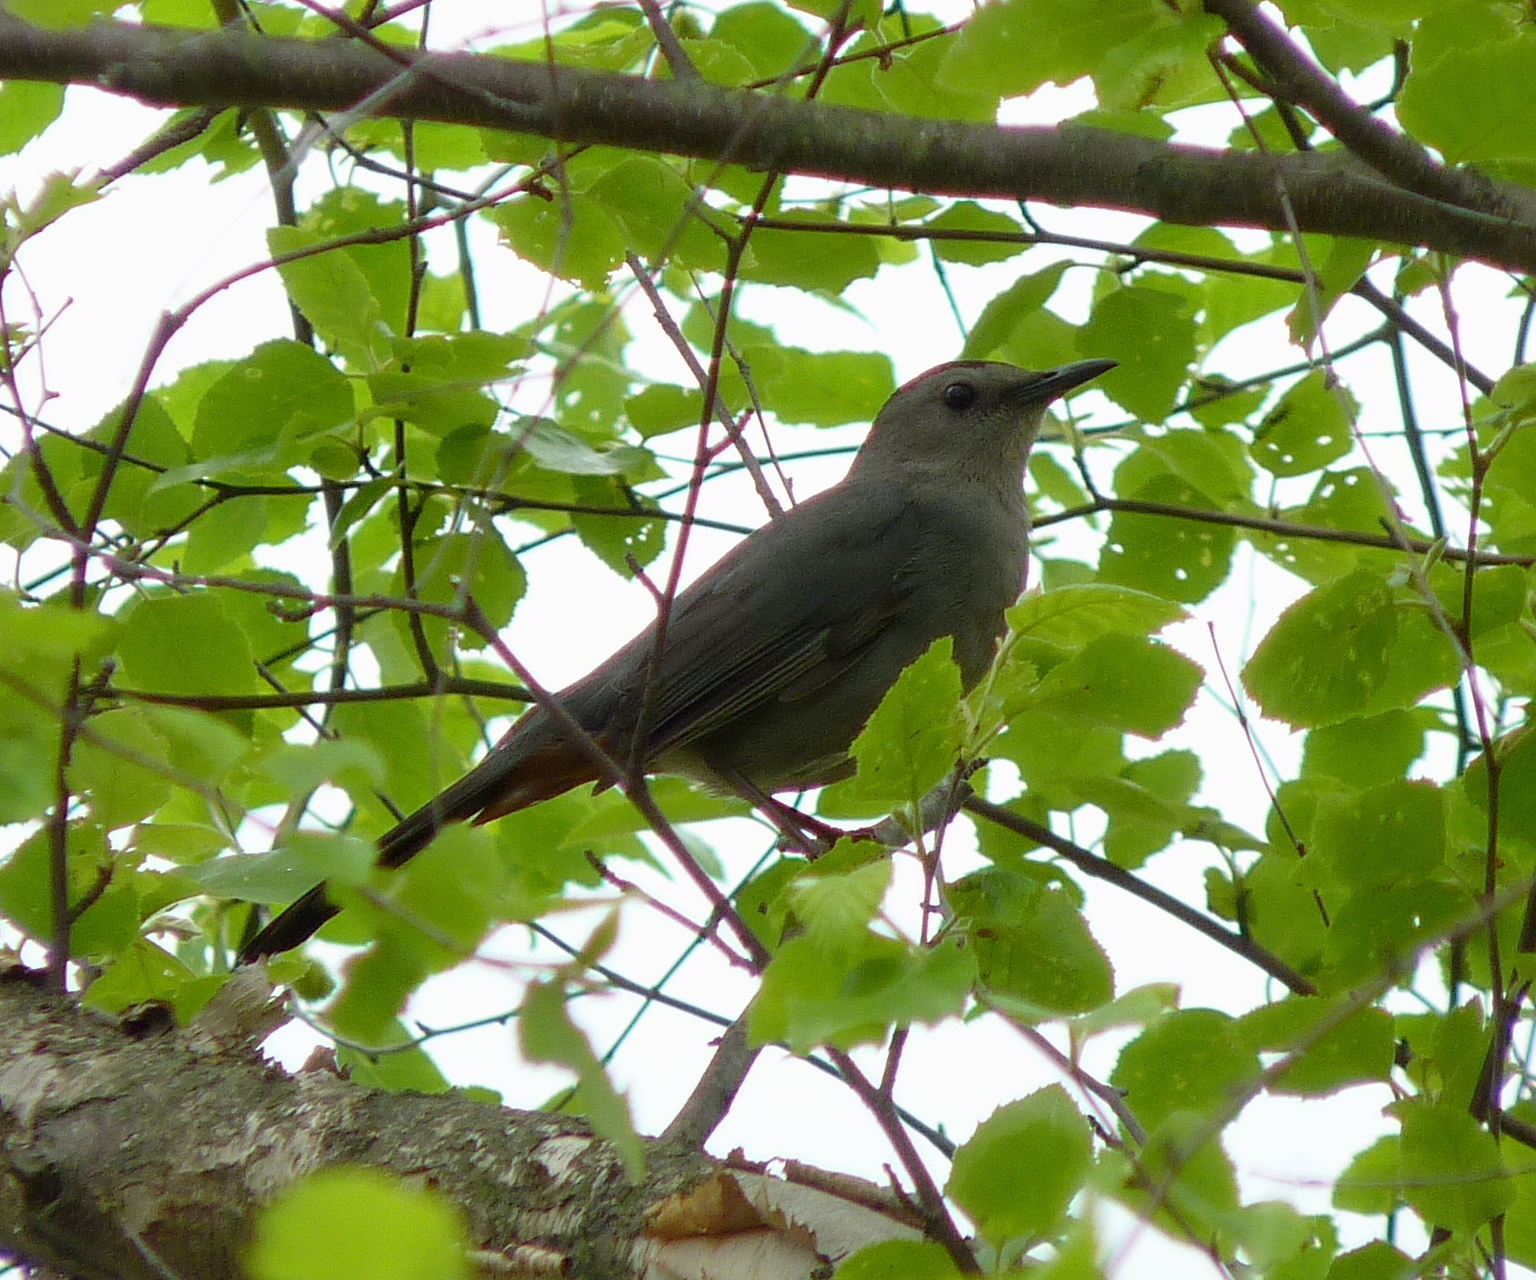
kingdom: Animalia
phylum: Chordata
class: Aves
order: Passeriformes
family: Mimidae
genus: Dumetella
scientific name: Dumetella carolinensis
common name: Gray catbird
